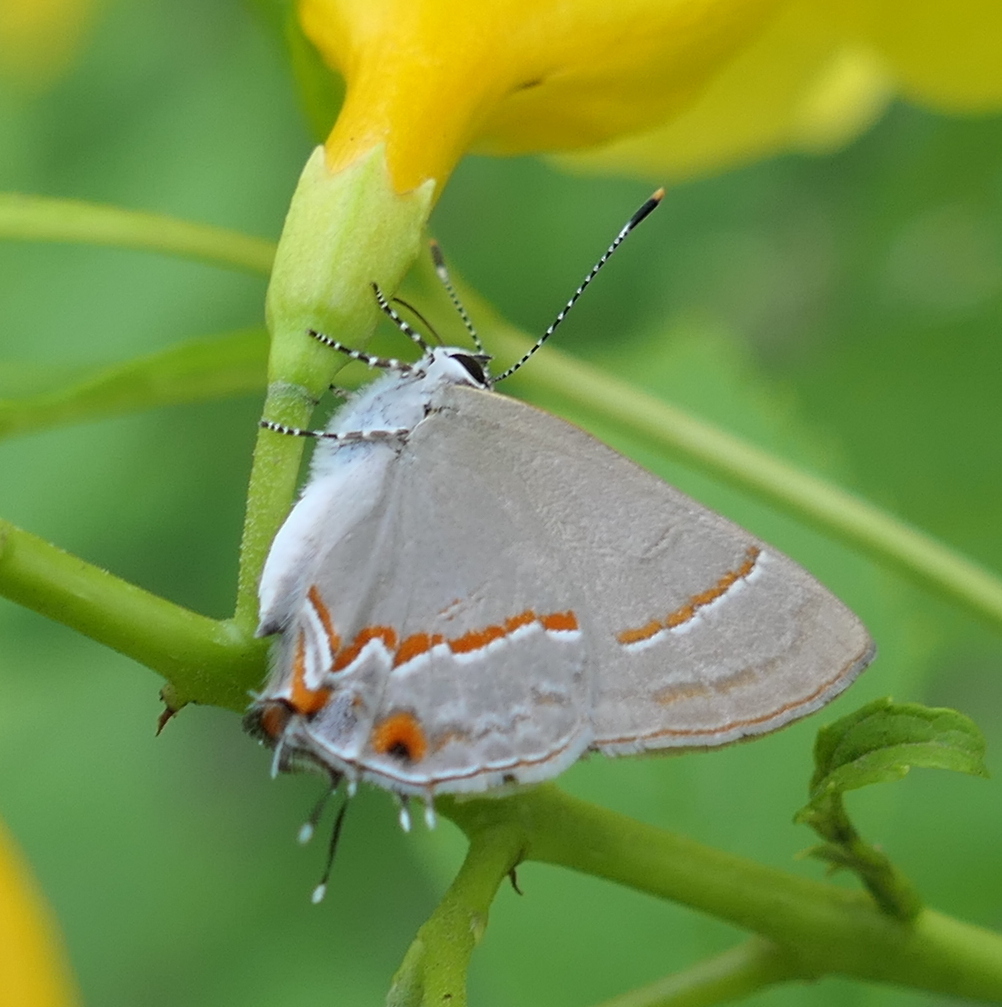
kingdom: Animalia
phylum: Arthropoda
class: Insecta
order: Lepidoptera
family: Lycaenidae
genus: Electrostrymon
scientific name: Electrostrymon endymion
